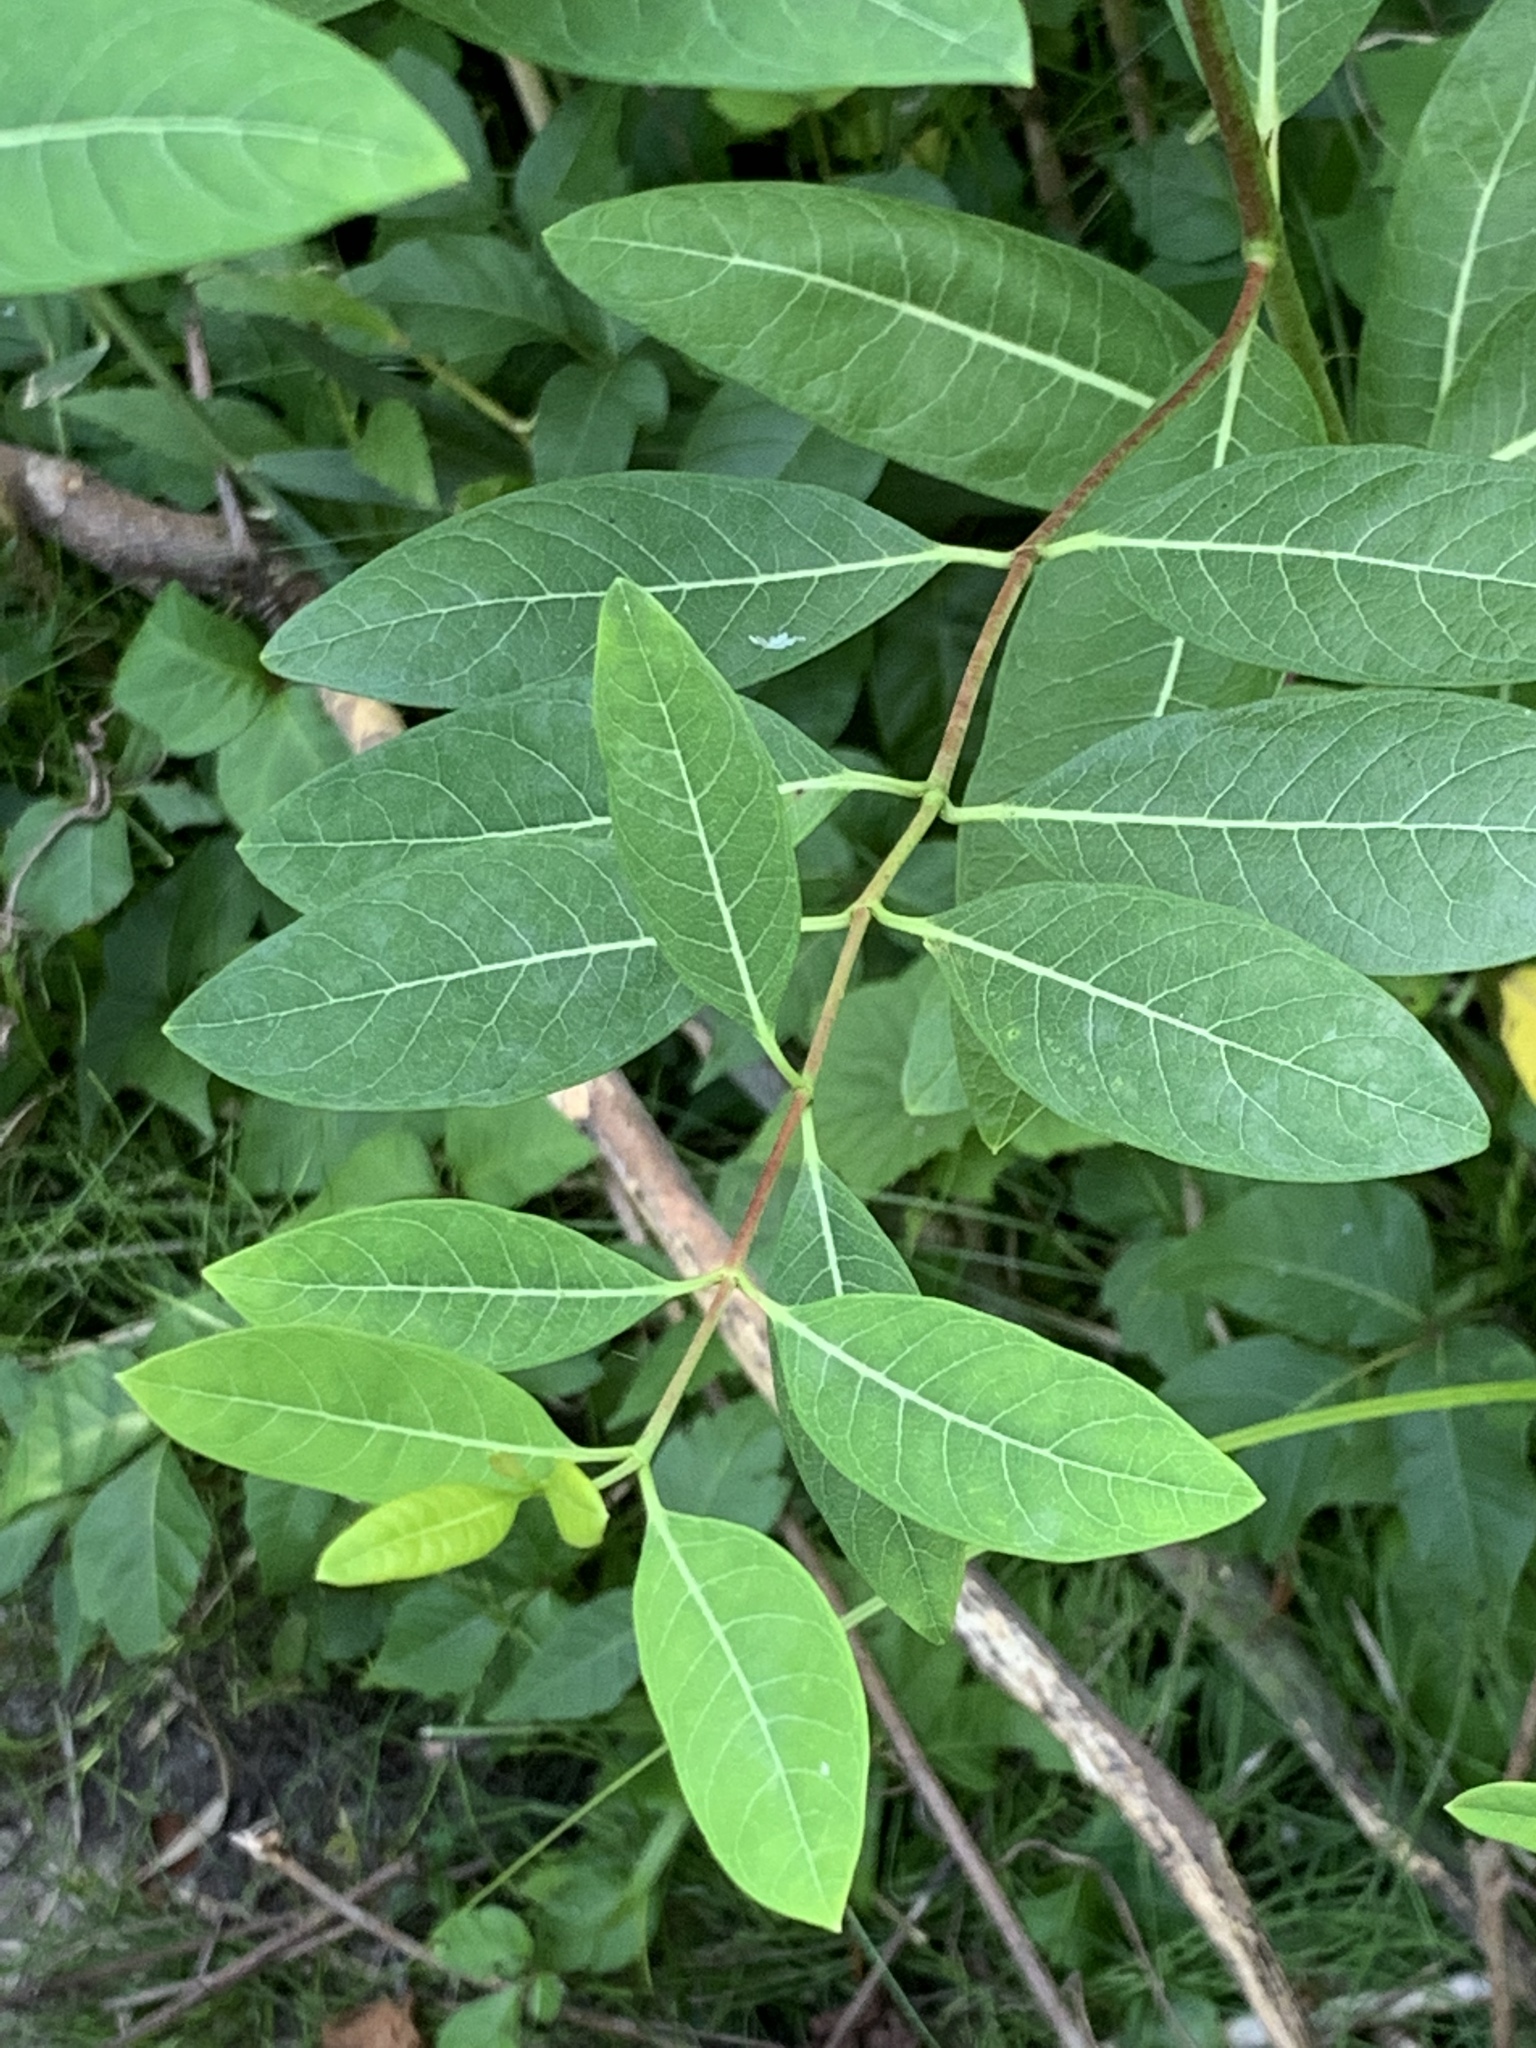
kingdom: Plantae
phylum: Tracheophyta
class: Magnoliopsida
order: Gentianales
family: Apocynaceae
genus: Apocynum
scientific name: Apocynum cannabinum
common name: Hemp dogbane
